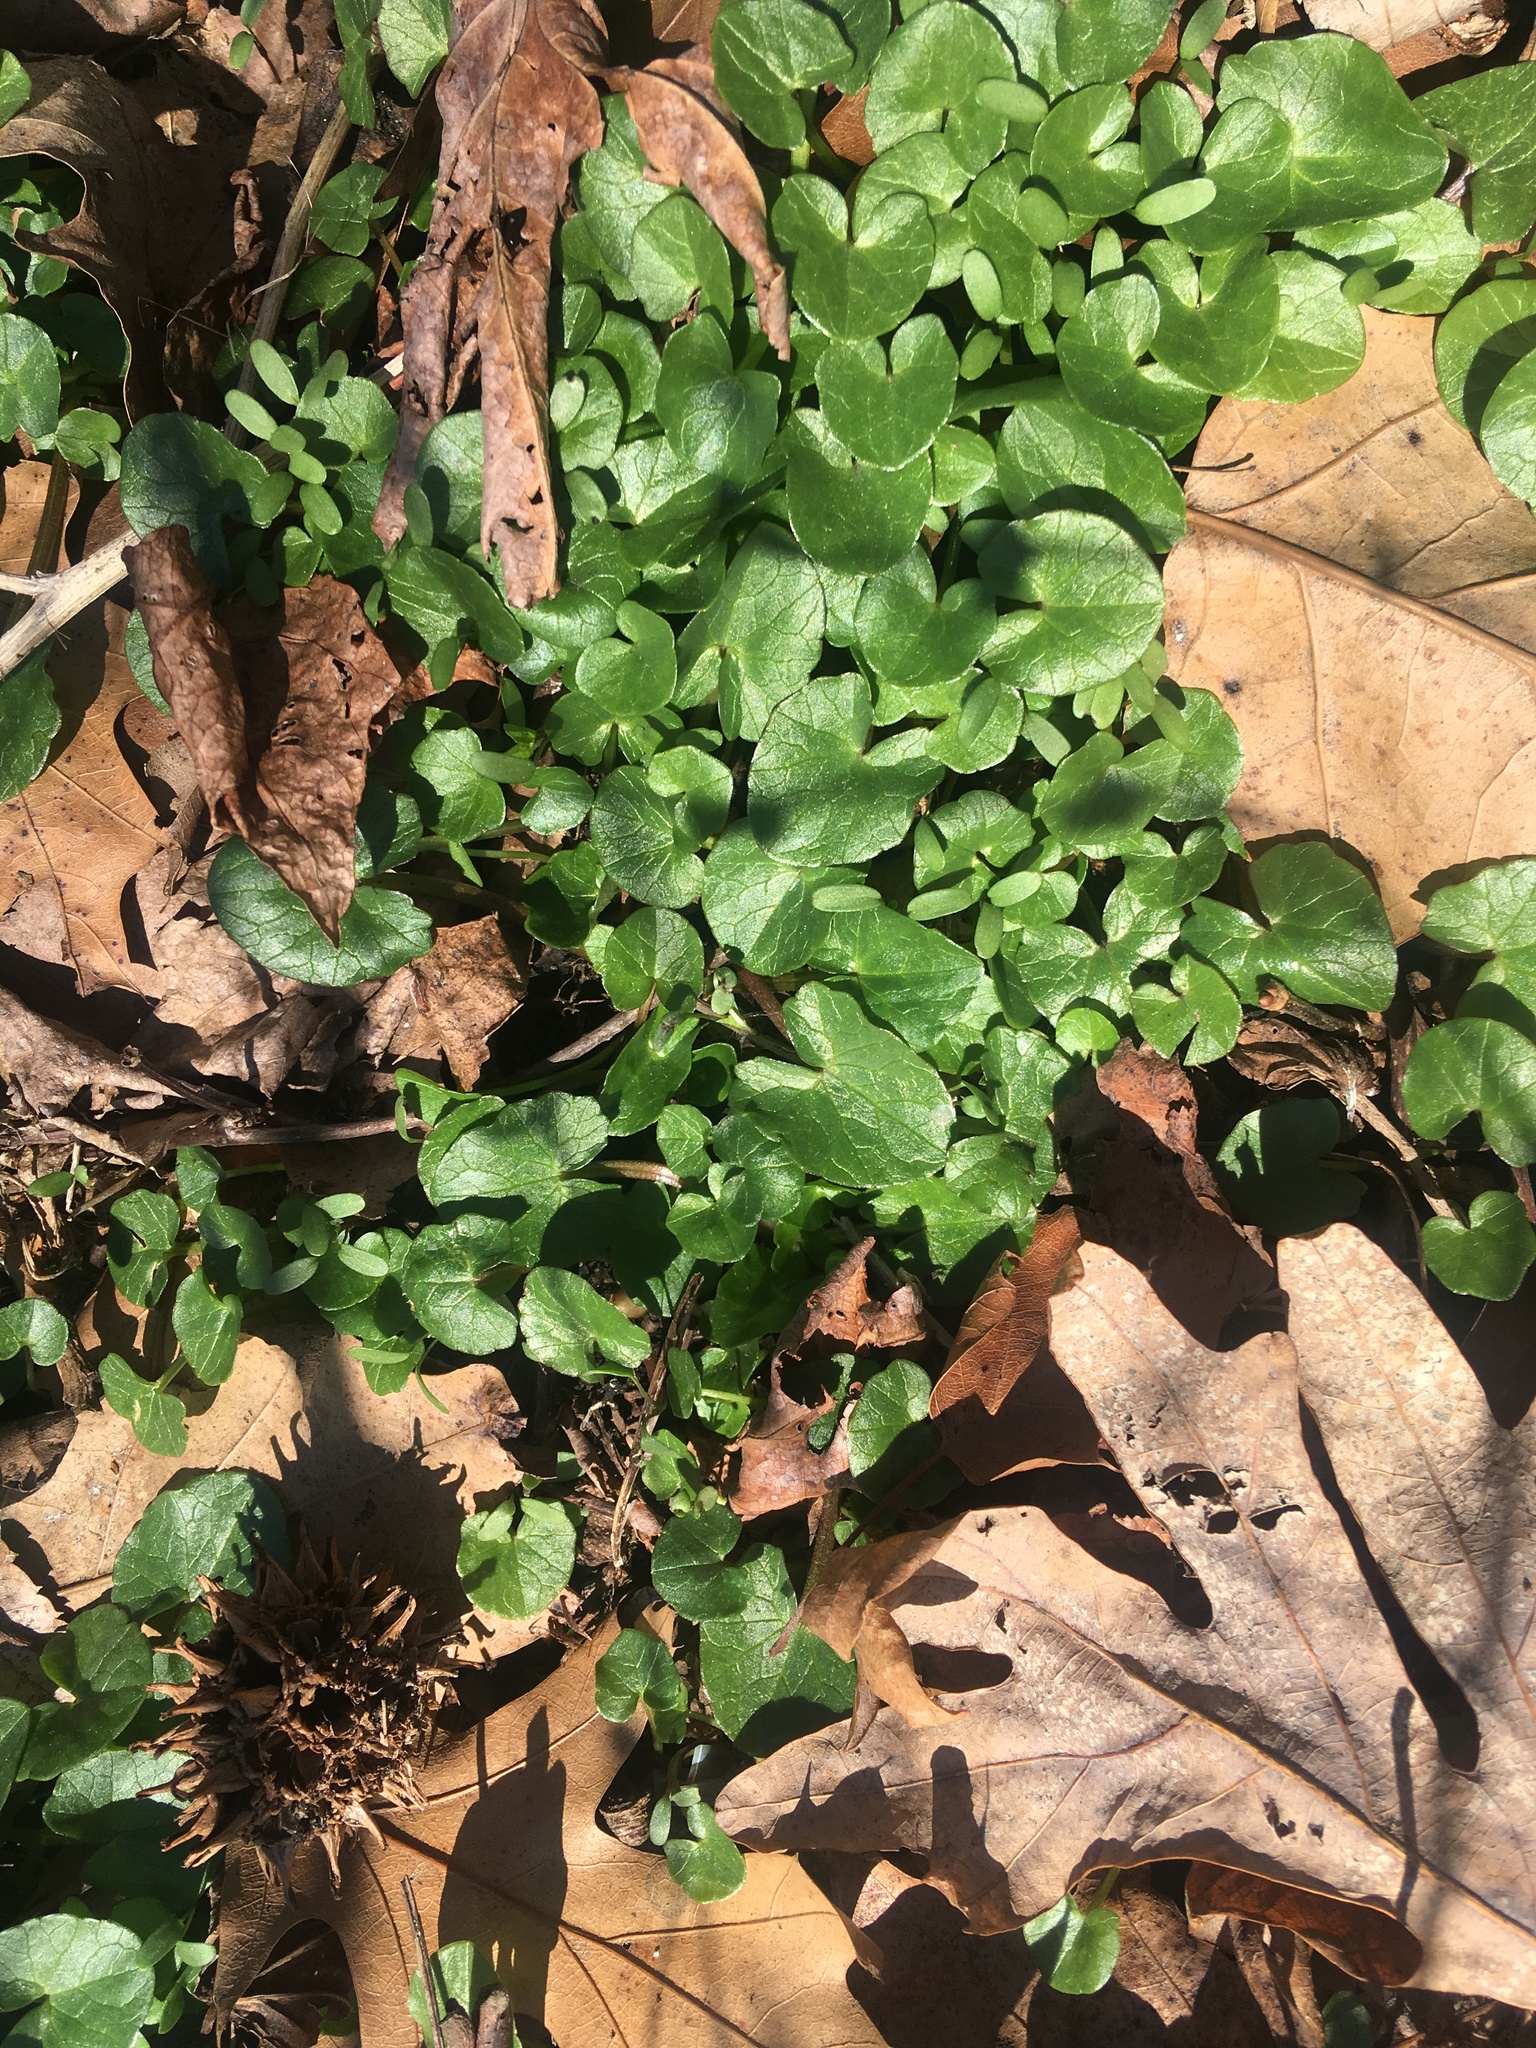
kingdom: Plantae
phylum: Tracheophyta
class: Magnoliopsida
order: Ranunculales
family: Ranunculaceae
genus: Ficaria
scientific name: Ficaria verna
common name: Lesser celandine
